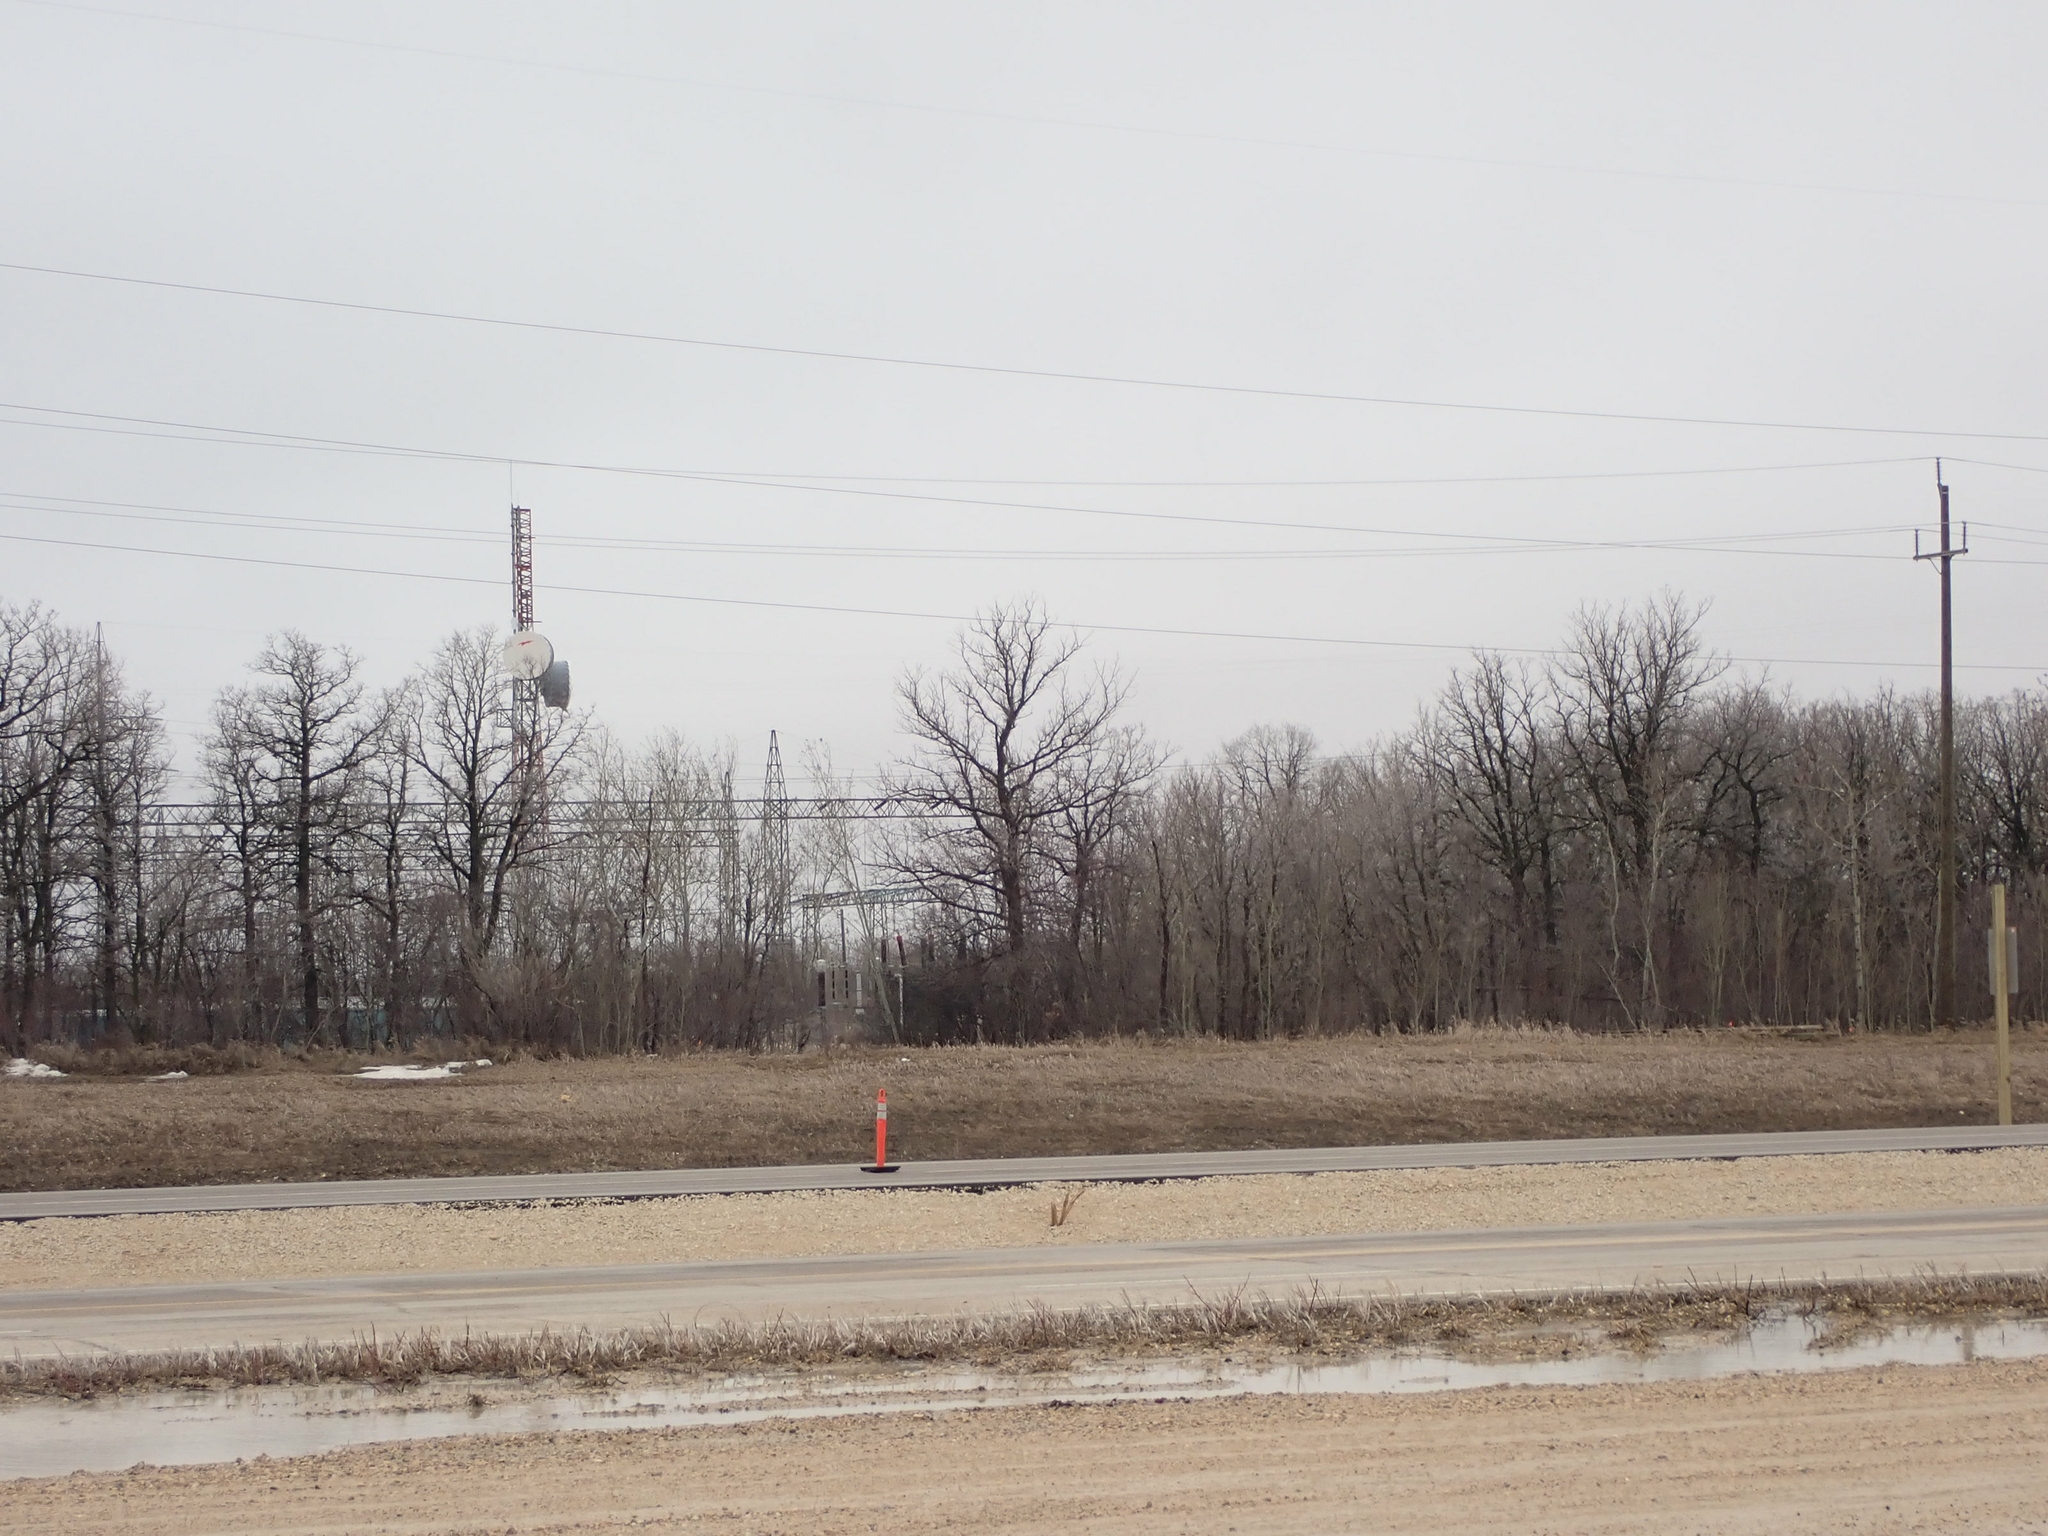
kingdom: Plantae
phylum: Tracheophyta
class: Magnoliopsida
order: Fagales
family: Fagaceae
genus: Quercus
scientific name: Quercus macrocarpa
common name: Bur oak
